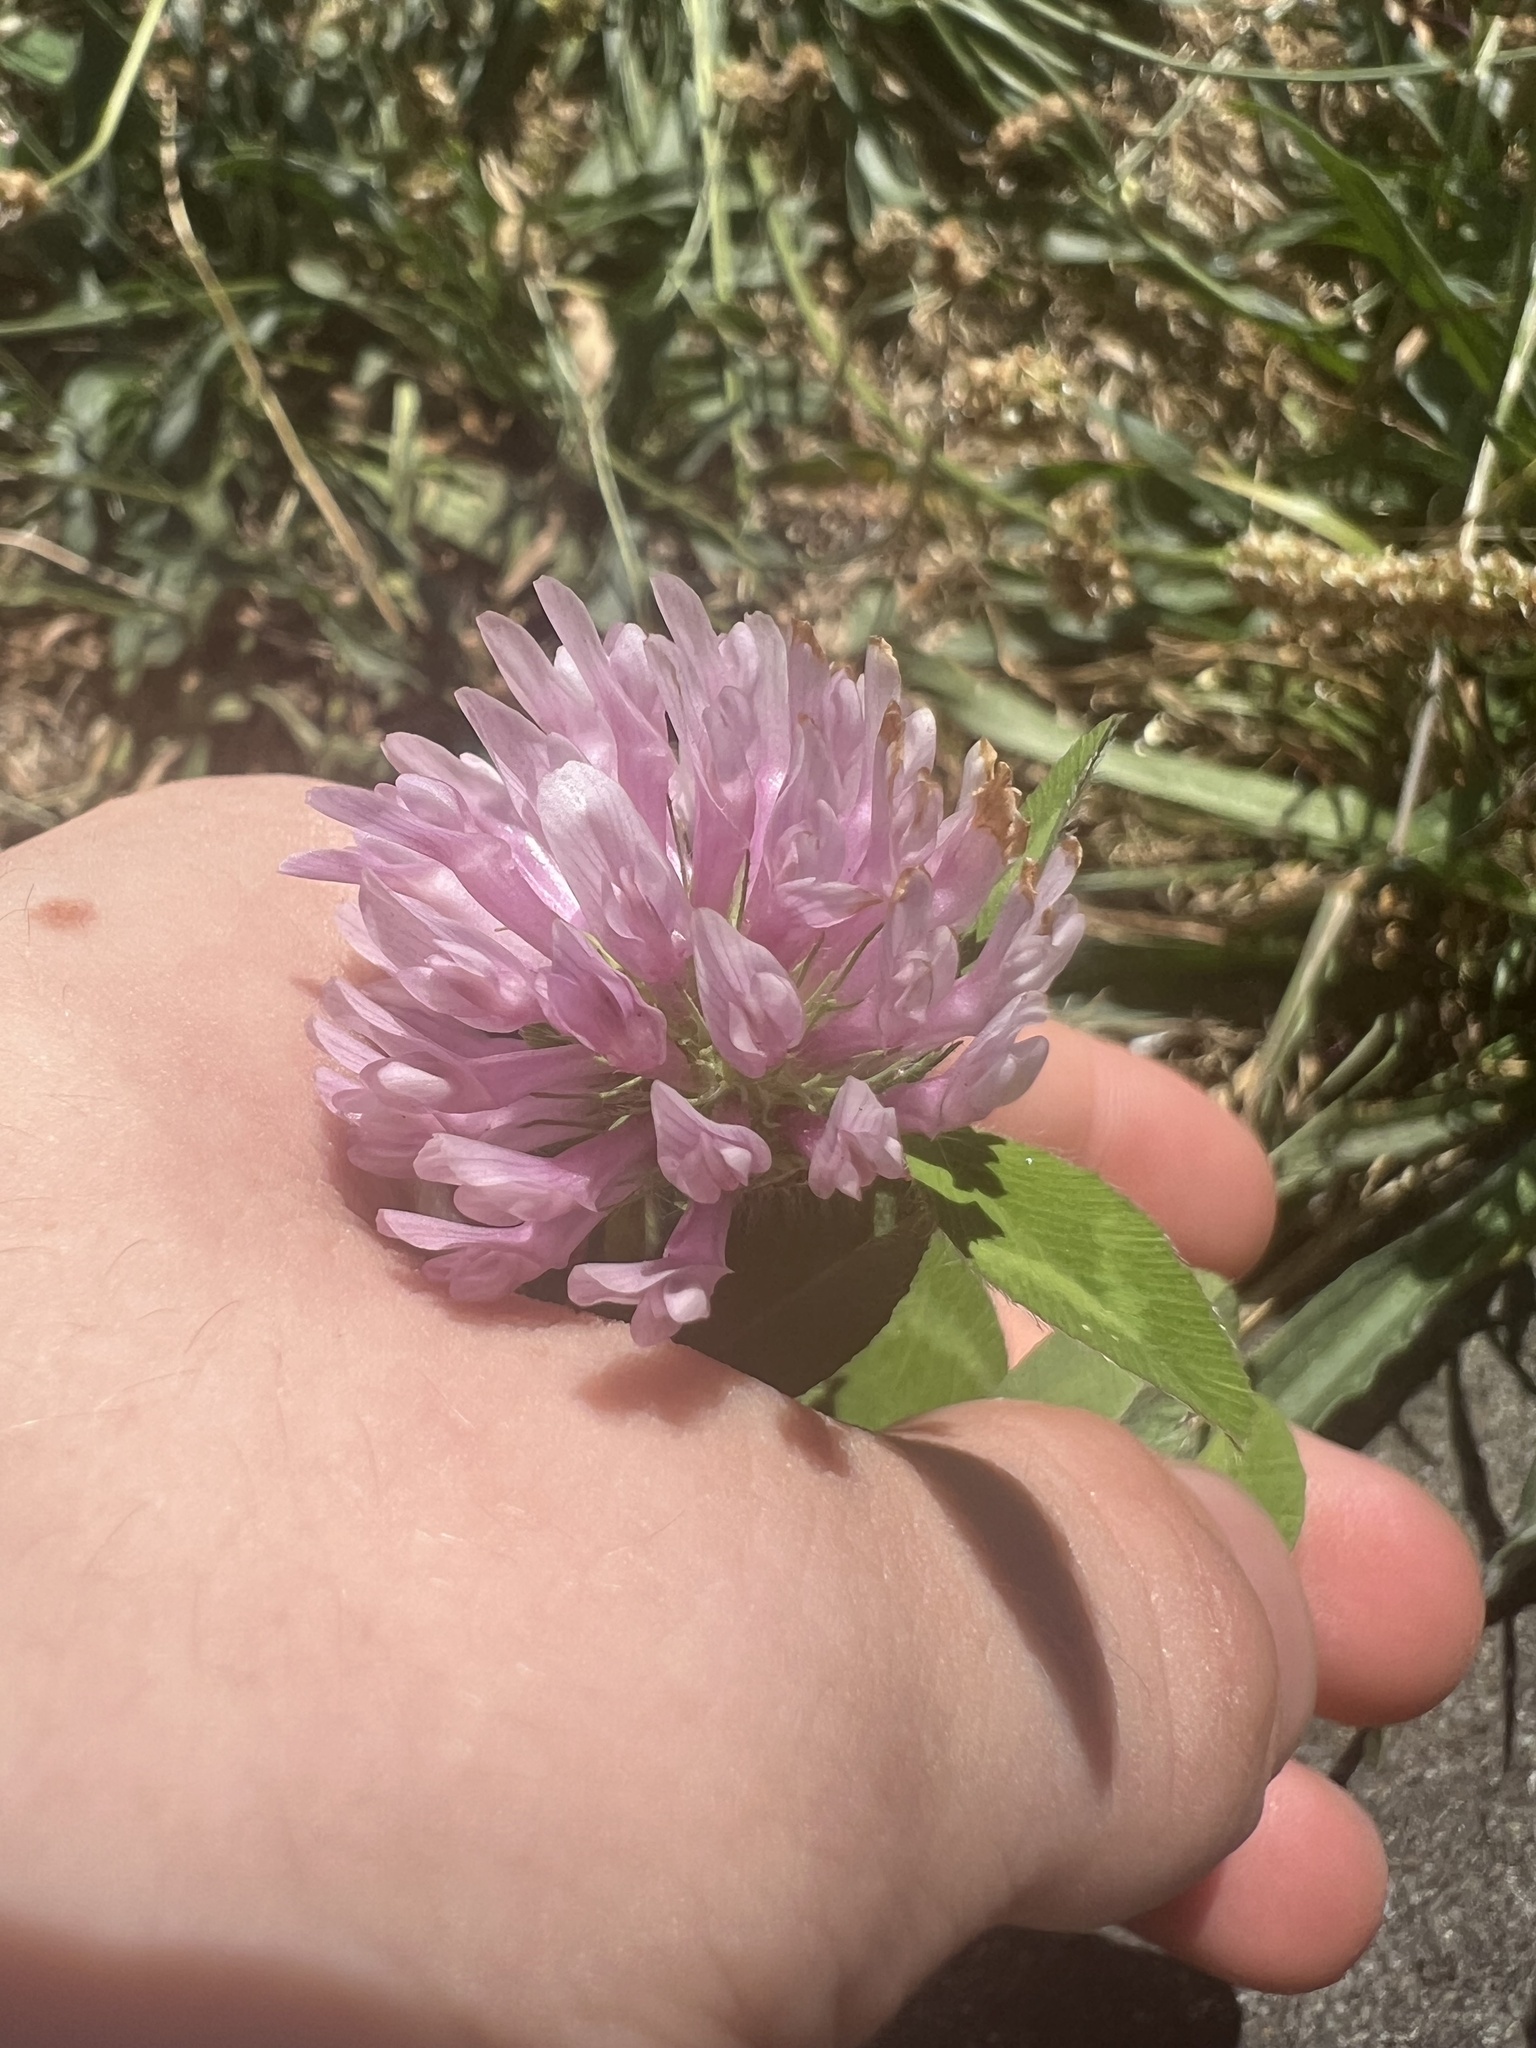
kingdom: Plantae
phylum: Tracheophyta
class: Magnoliopsida
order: Fabales
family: Fabaceae
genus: Trifolium
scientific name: Trifolium pratense
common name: Red clover
